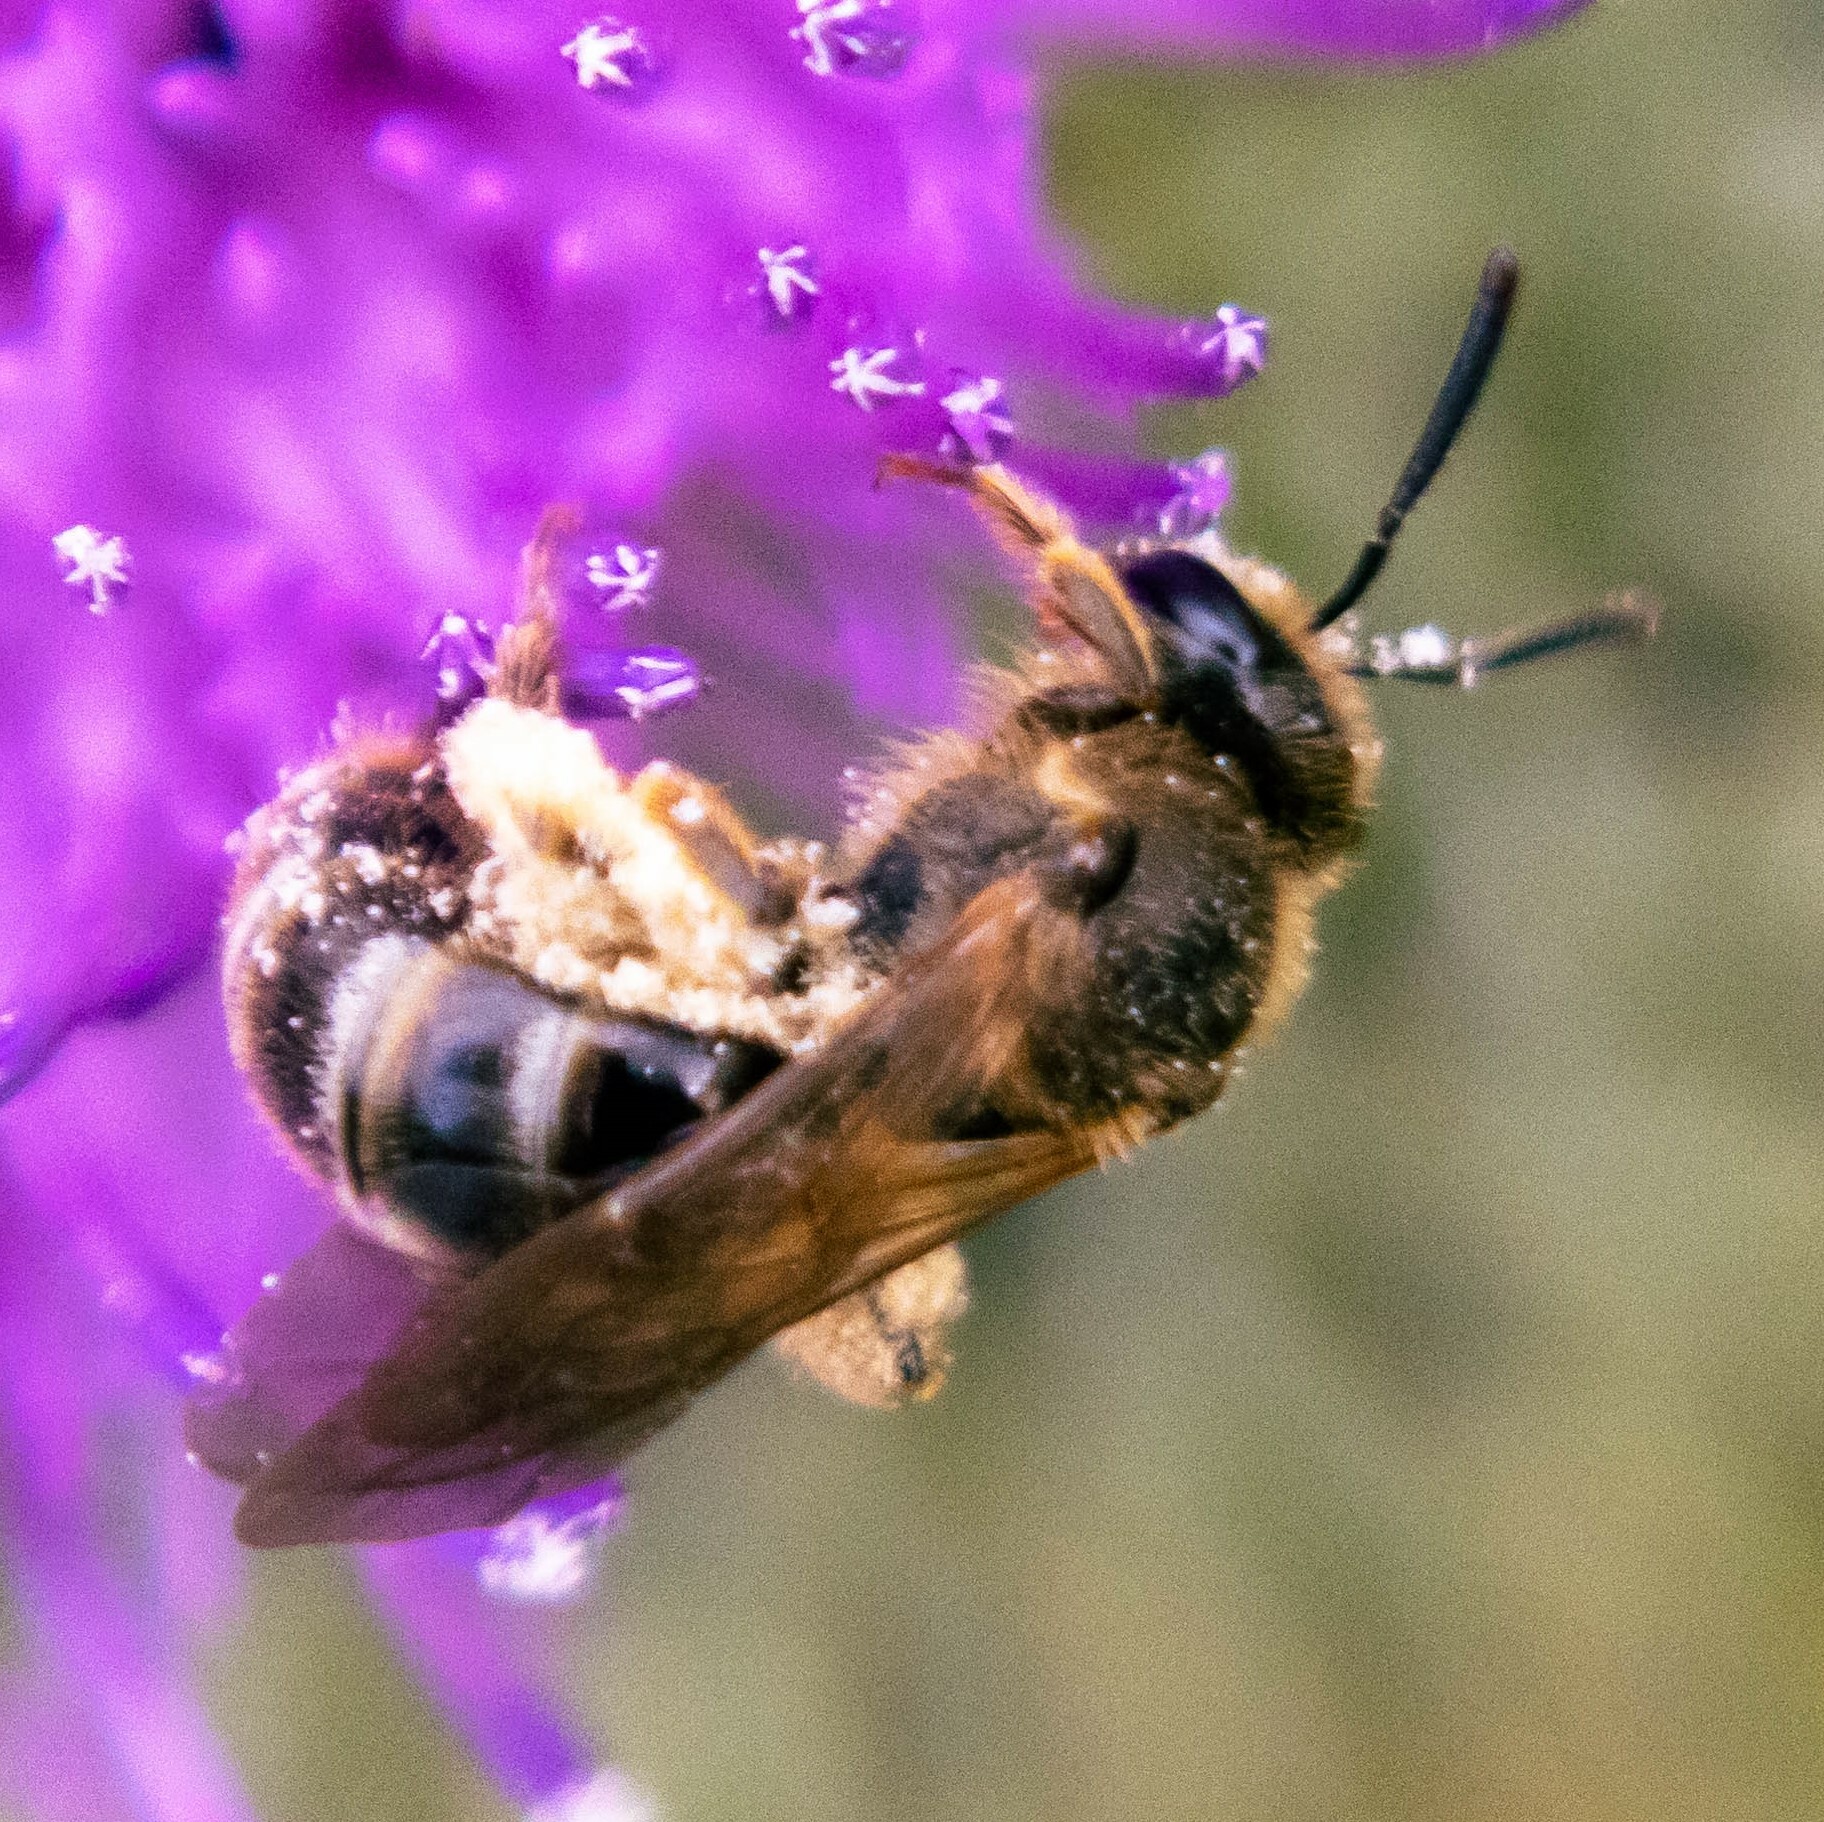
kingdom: Animalia
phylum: Arthropoda
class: Insecta
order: Hymenoptera
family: Halictidae
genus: Lasioglossum
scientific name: Lasioglossum
